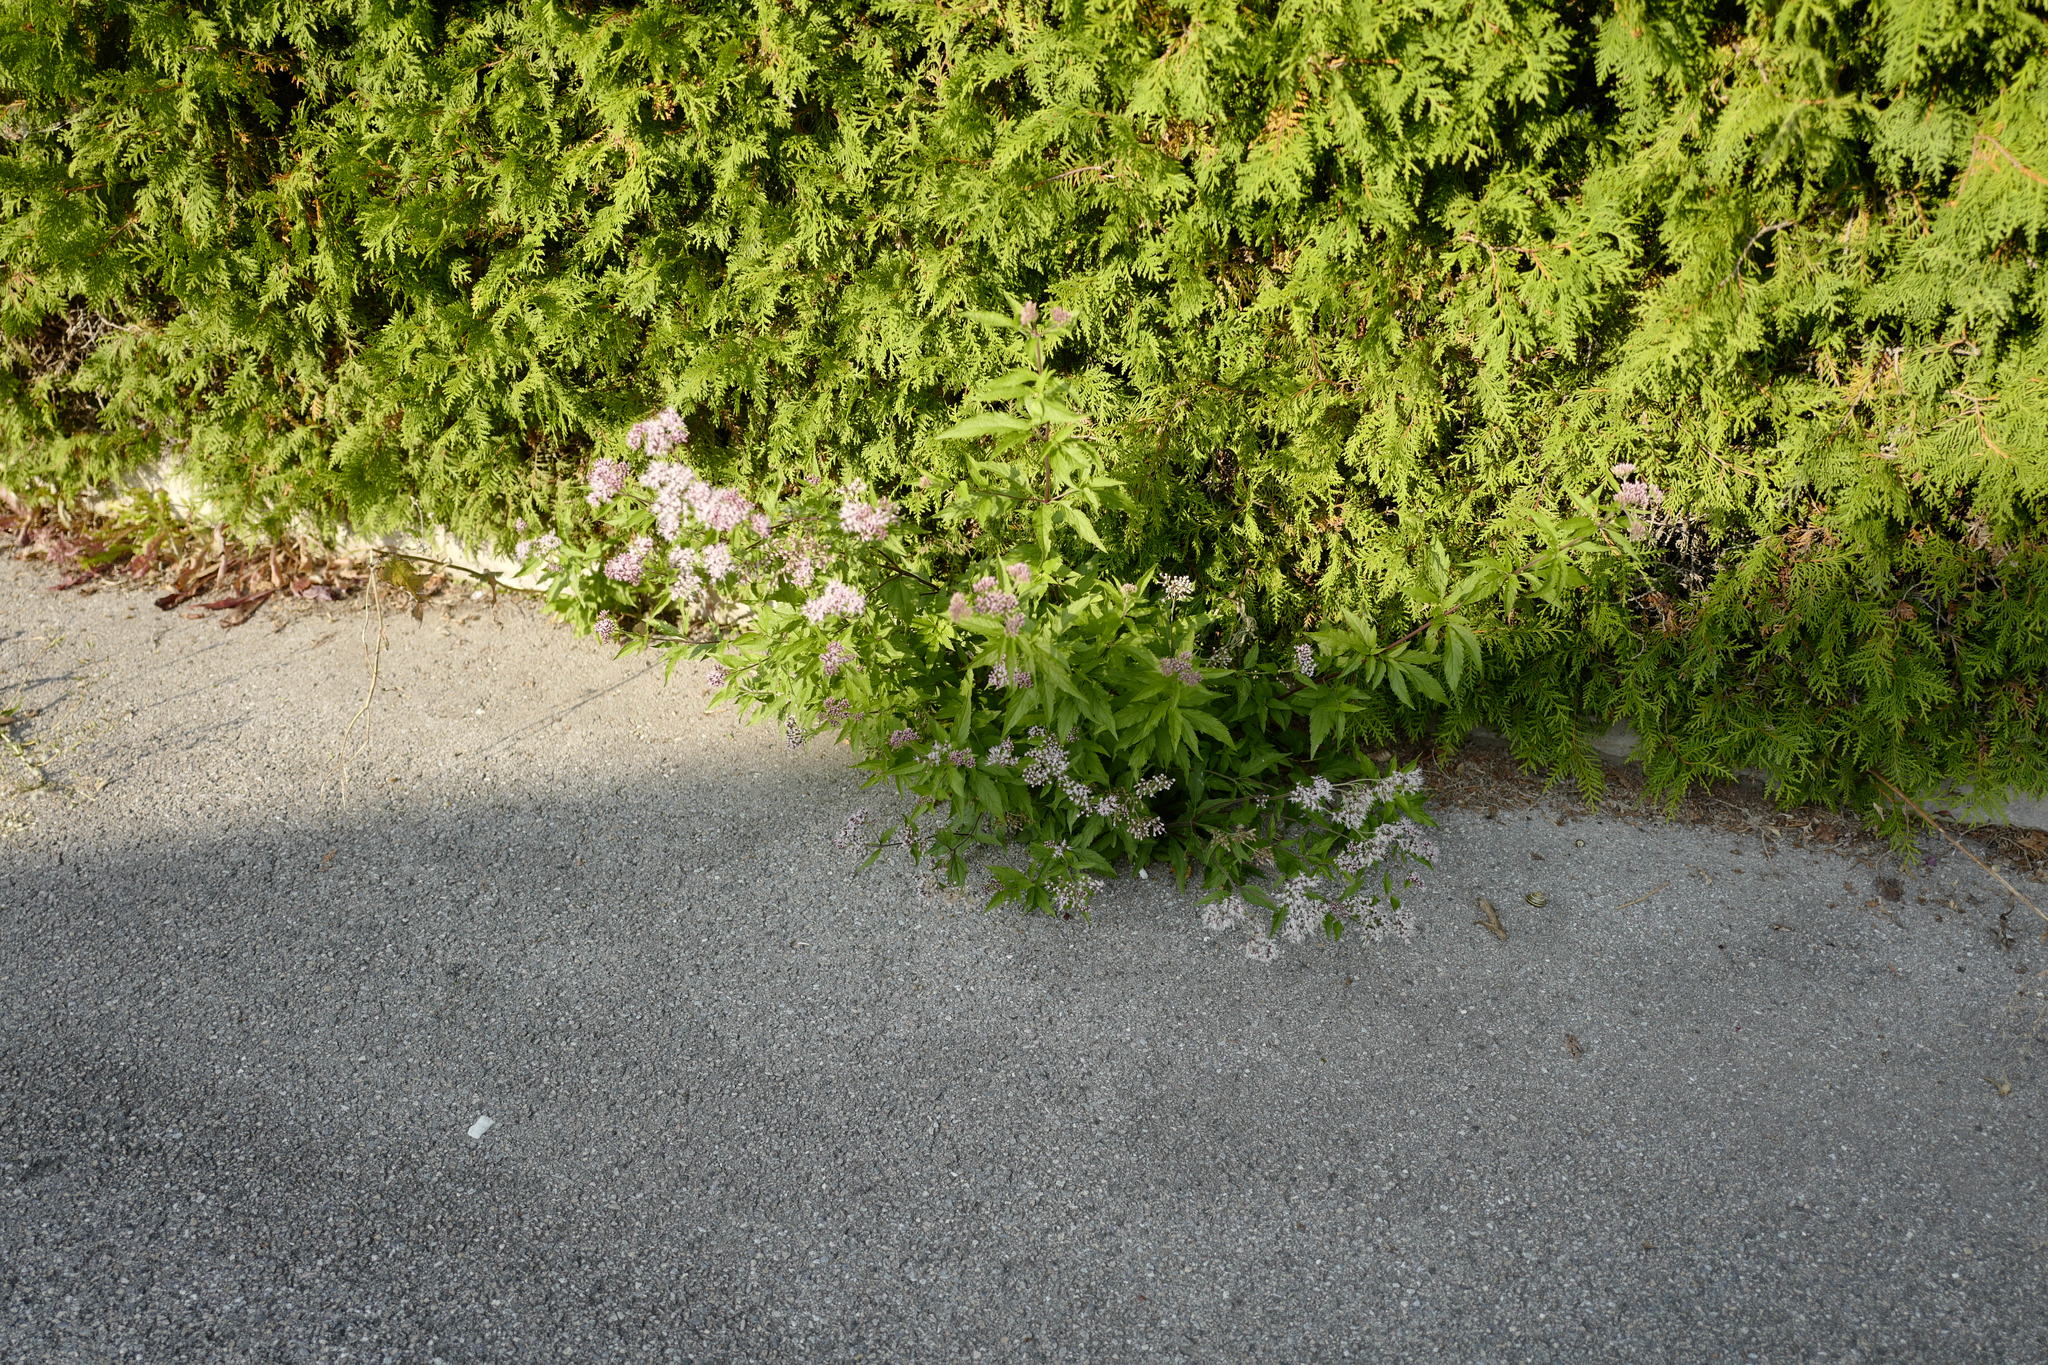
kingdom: Plantae
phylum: Tracheophyta
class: Magnoliopsida
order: Asterales
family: Asteraceae
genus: Eupatorium
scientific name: Eupatorium cannabinum
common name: Hemp-agrimony
